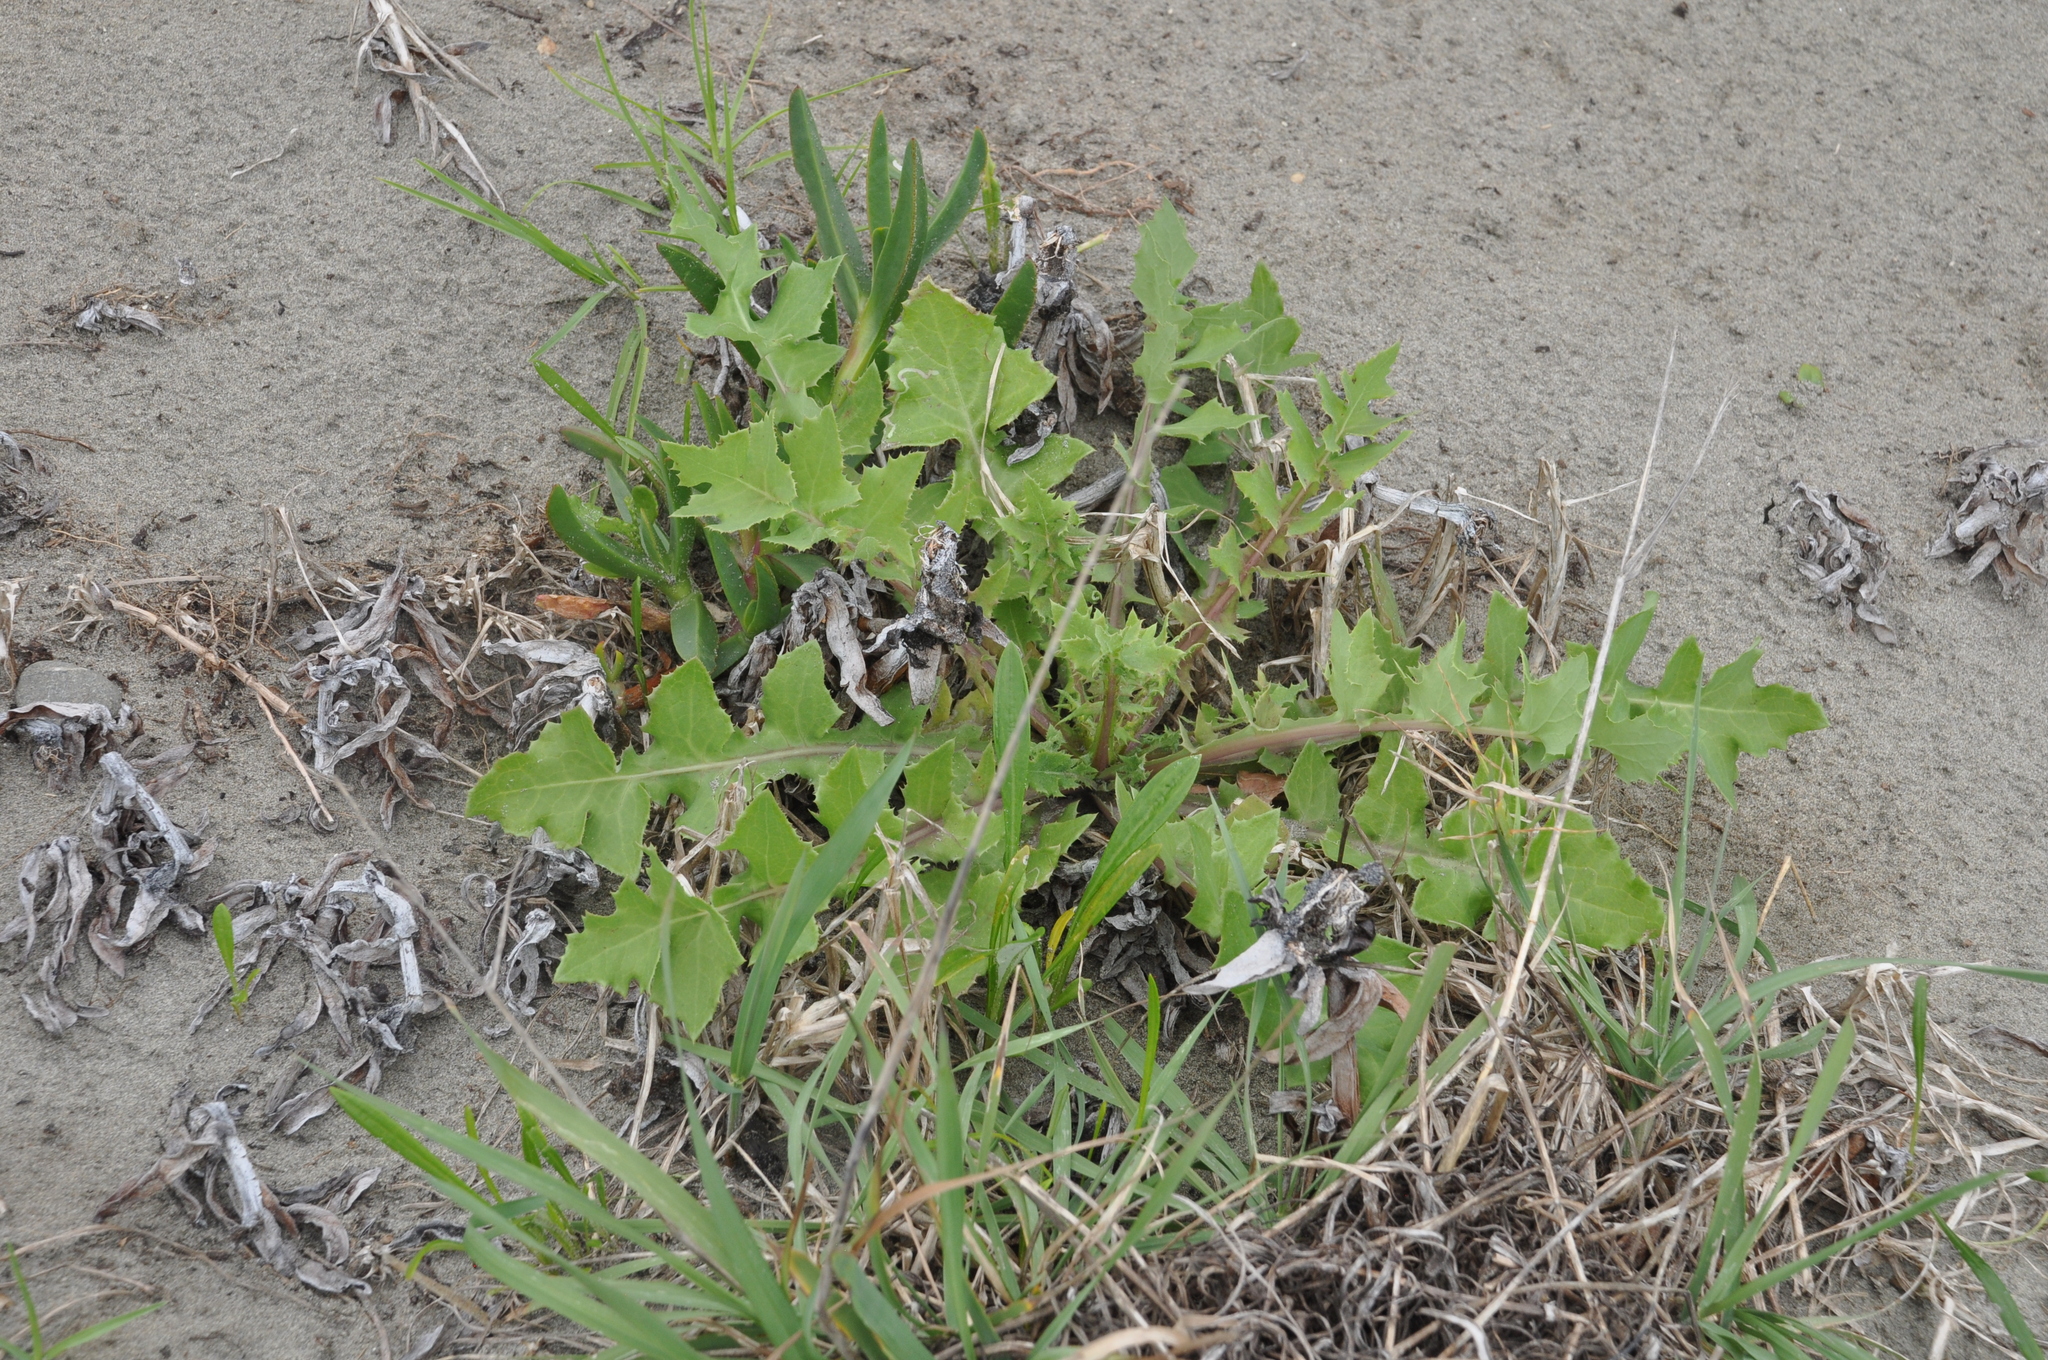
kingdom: Plantae
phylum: Tracheophyta
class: Magnoliopsida
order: Asterales
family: Asteraceae
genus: Sonchus
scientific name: Sonchus oleraceus
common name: Common sowthistle
